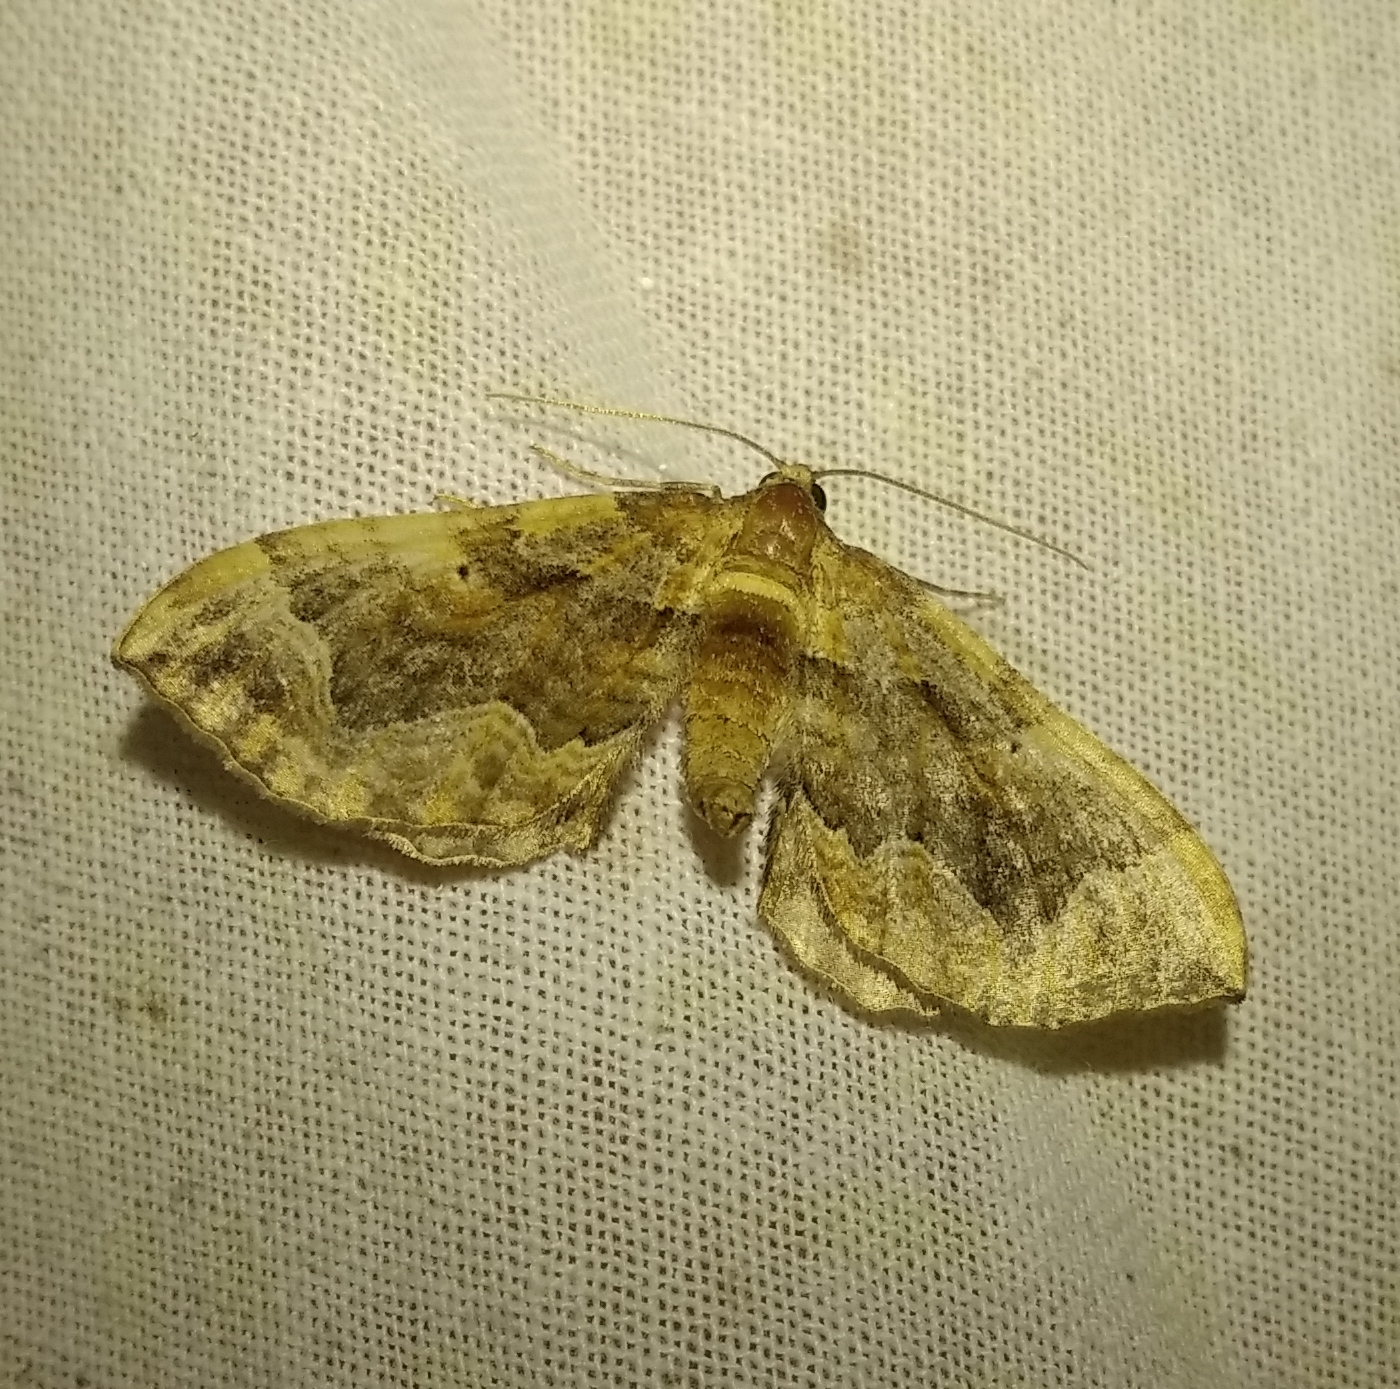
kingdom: Animalia
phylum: Arthropoda
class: Insecta
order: Lepidoptera
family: Geometridae
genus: Pelurga
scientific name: Pelurga comitata
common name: Dark spinach
